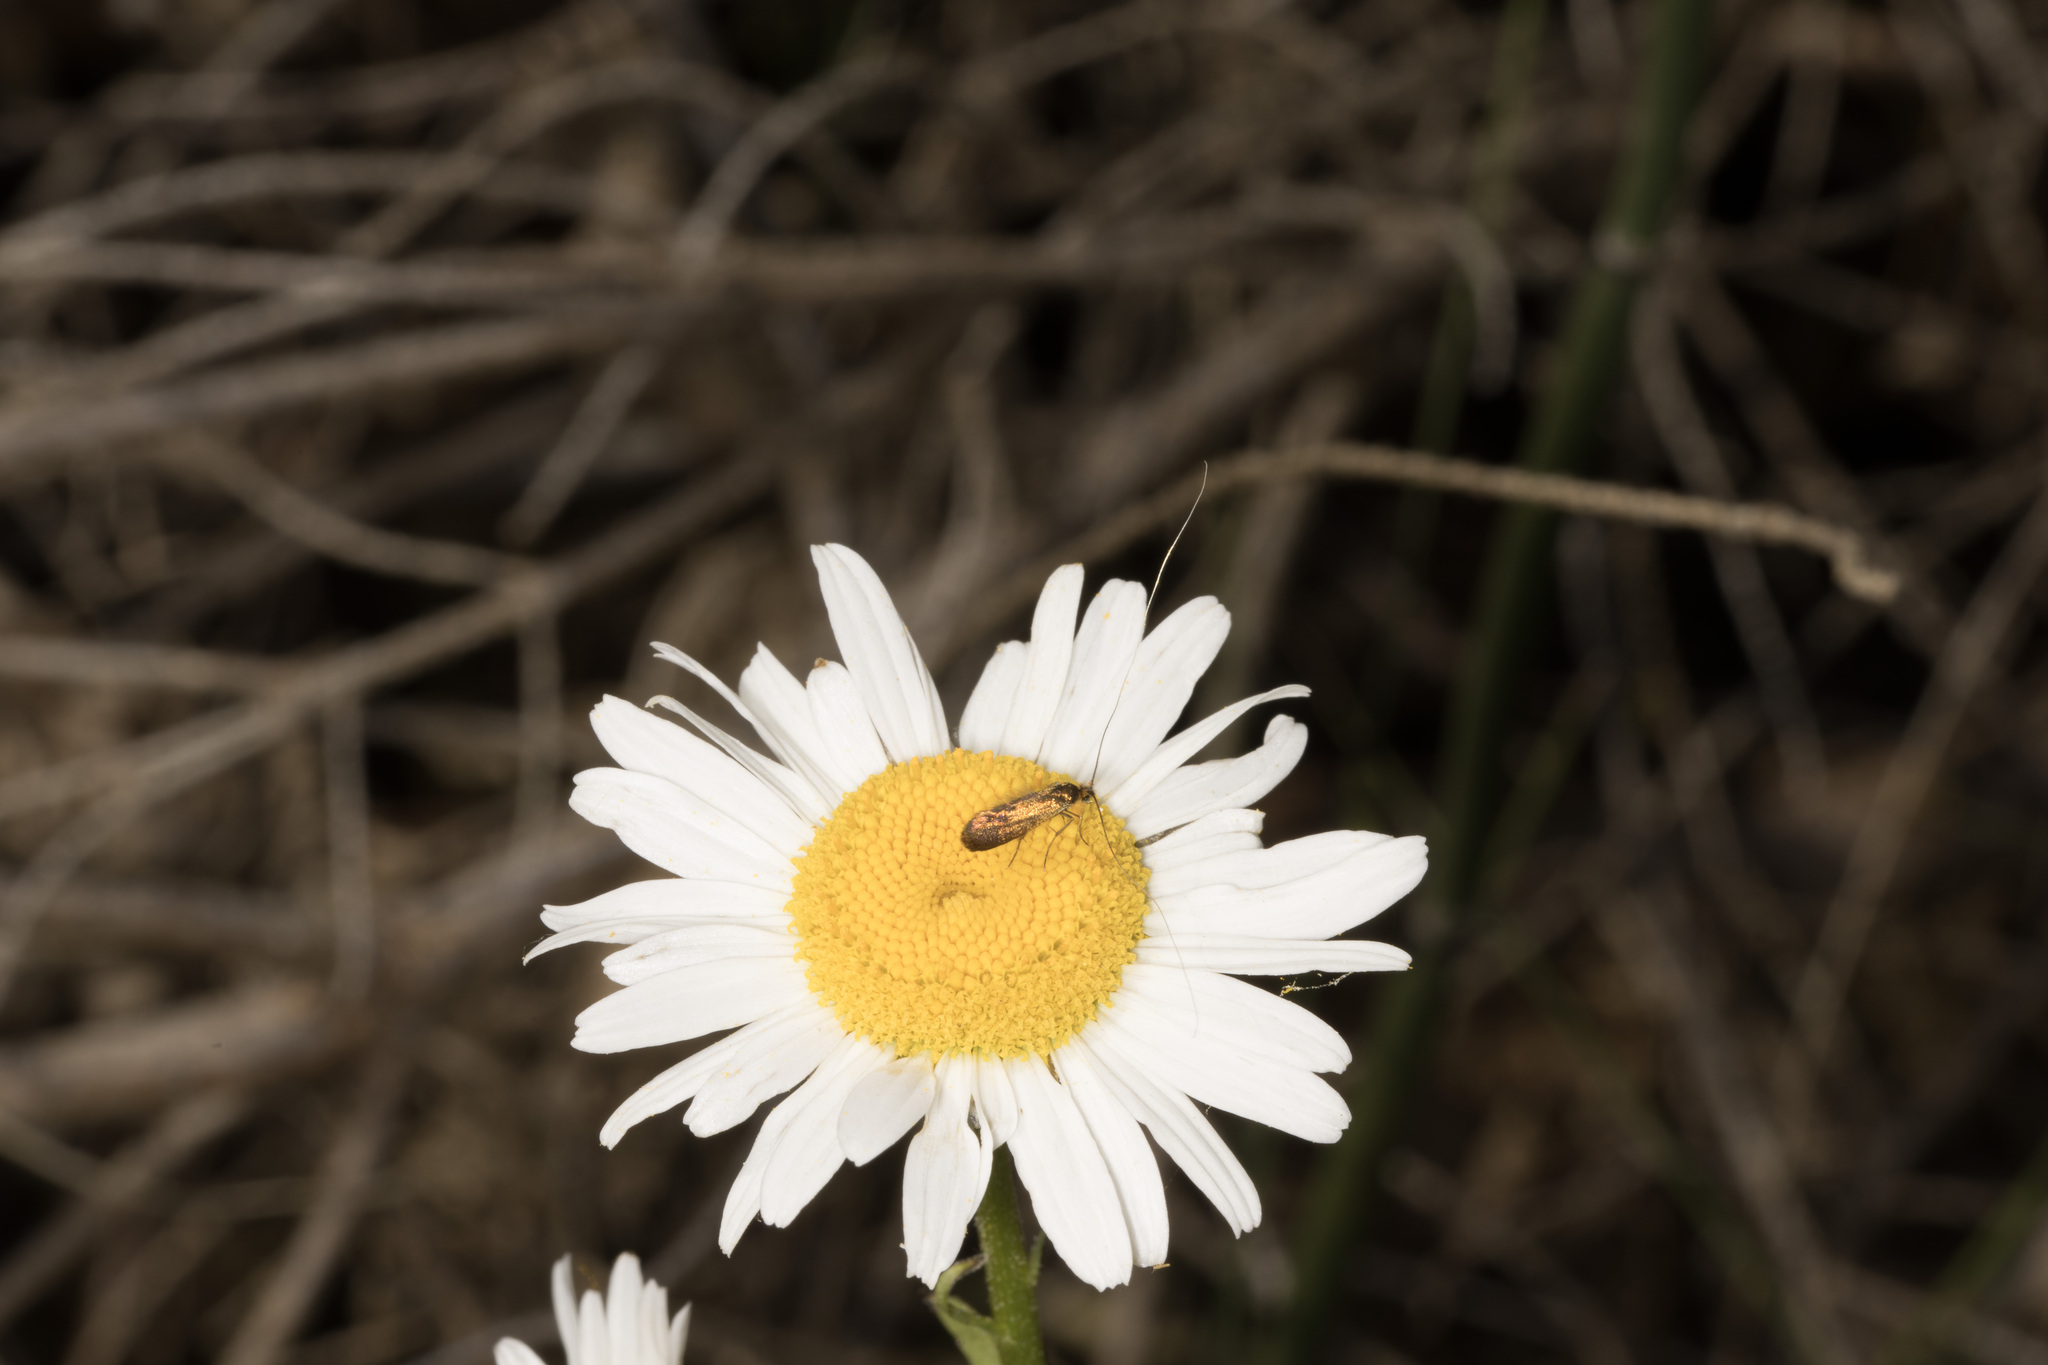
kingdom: Animalia
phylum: Arthropoda
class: Insecta
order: Lepidoptera
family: Adelidae
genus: Adela
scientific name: Adela violella
